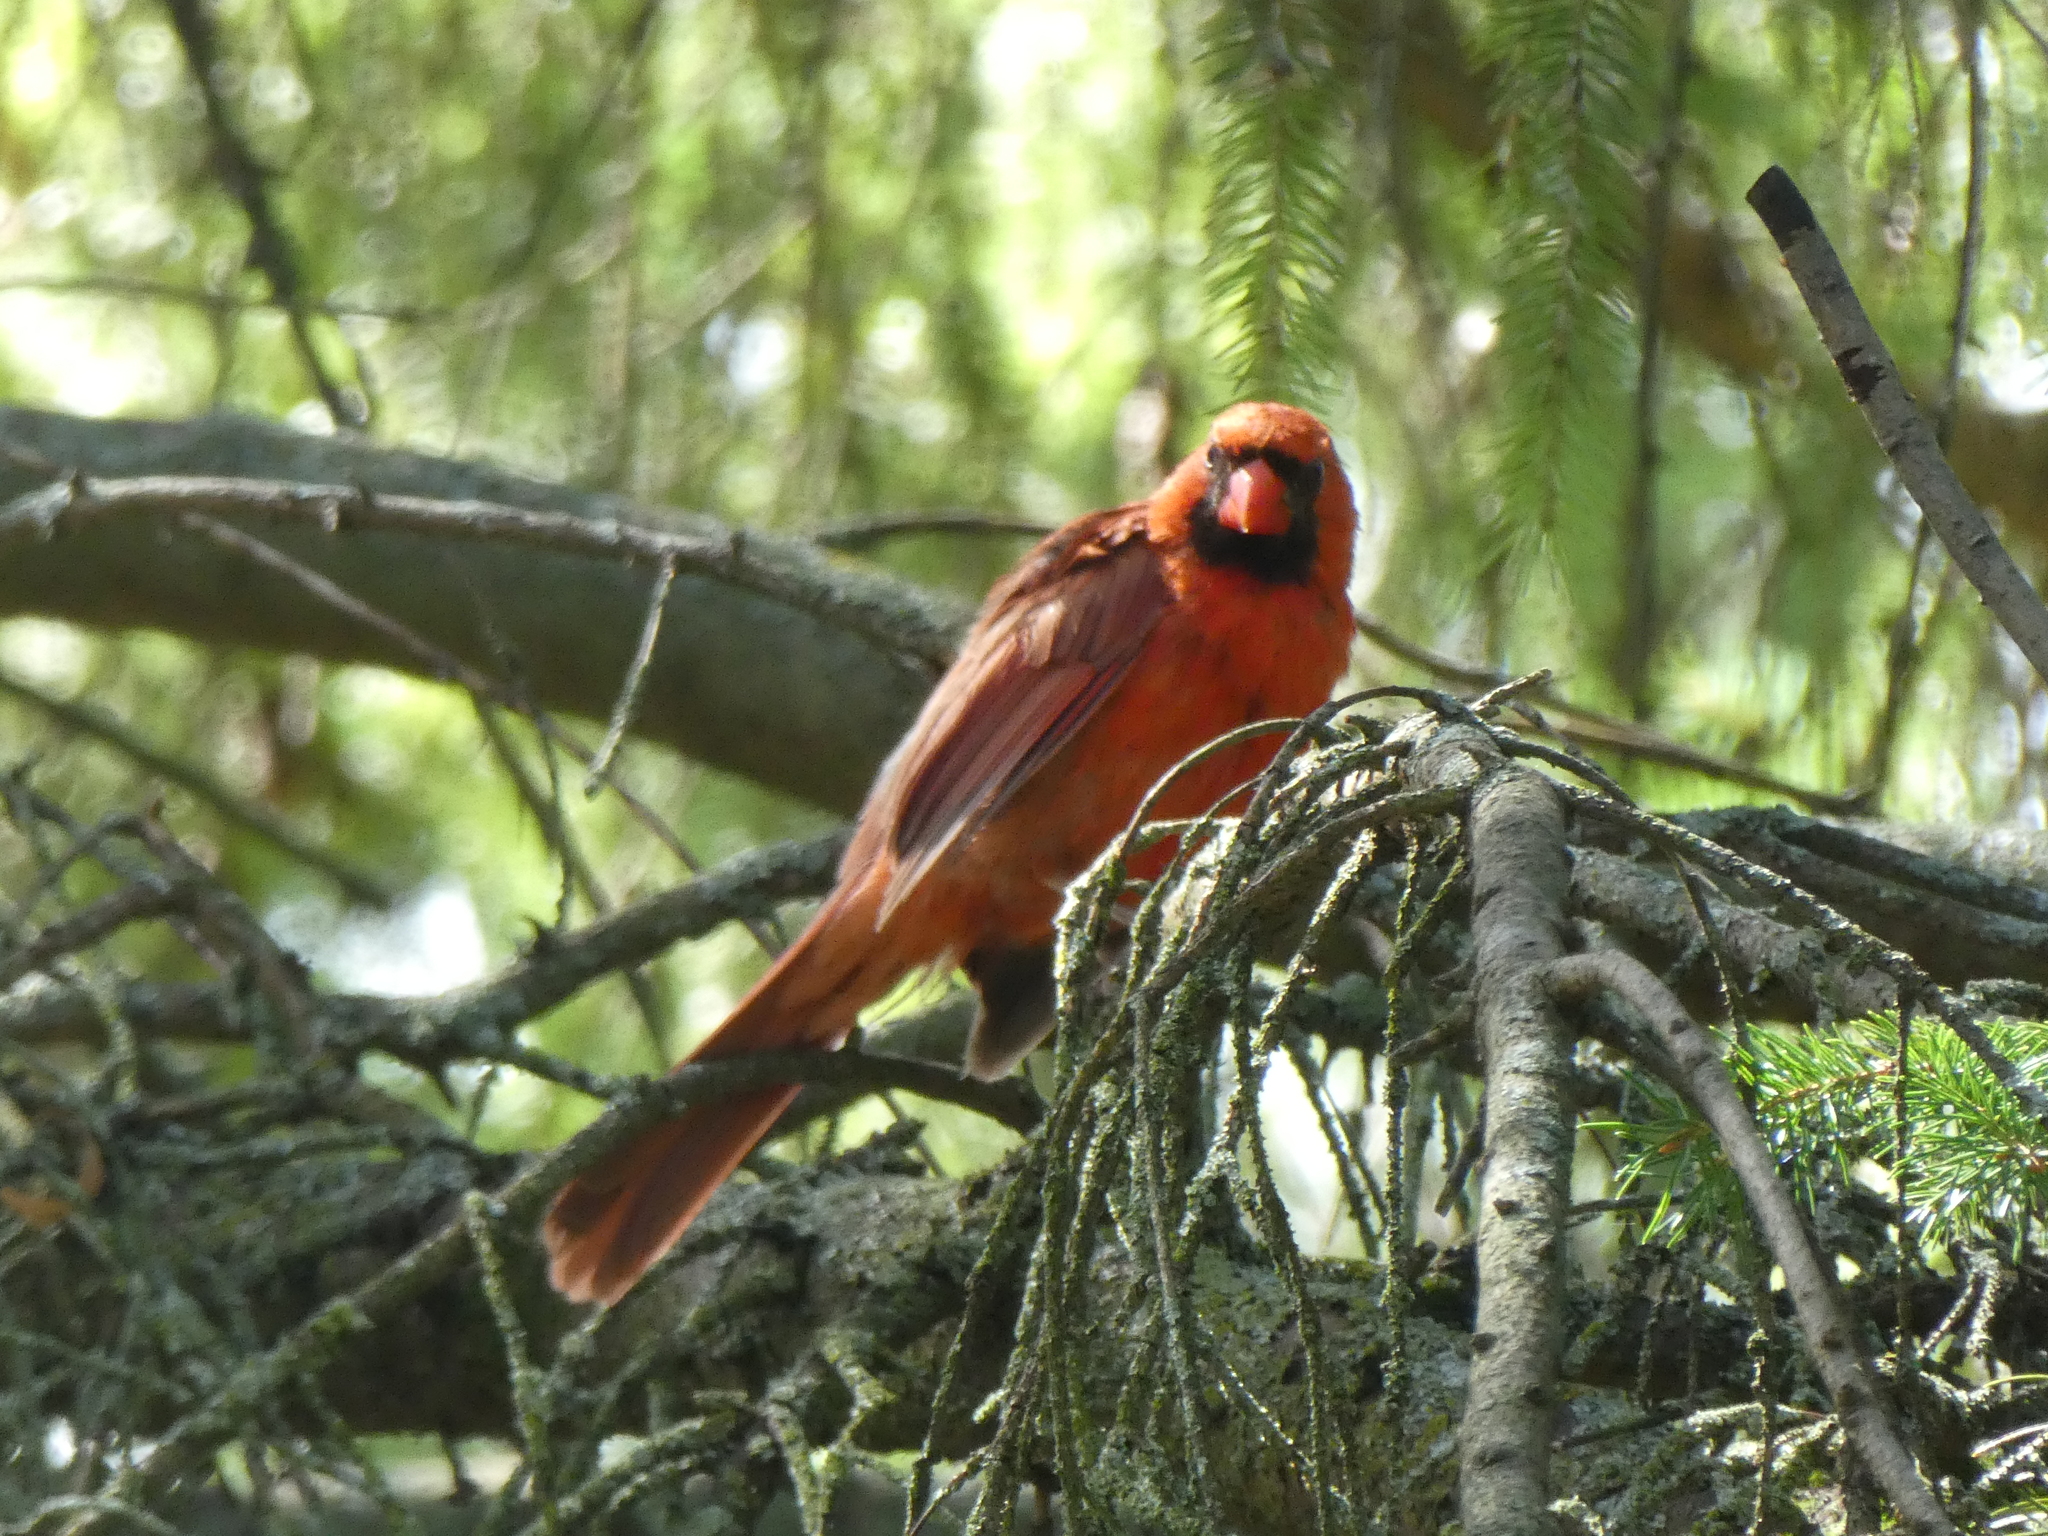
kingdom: Animalia
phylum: Chordata
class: Aves
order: Passeriformes
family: Cardinalidae
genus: Cardinalis
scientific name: Cardinalis cardinalis
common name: Northern cardinal
